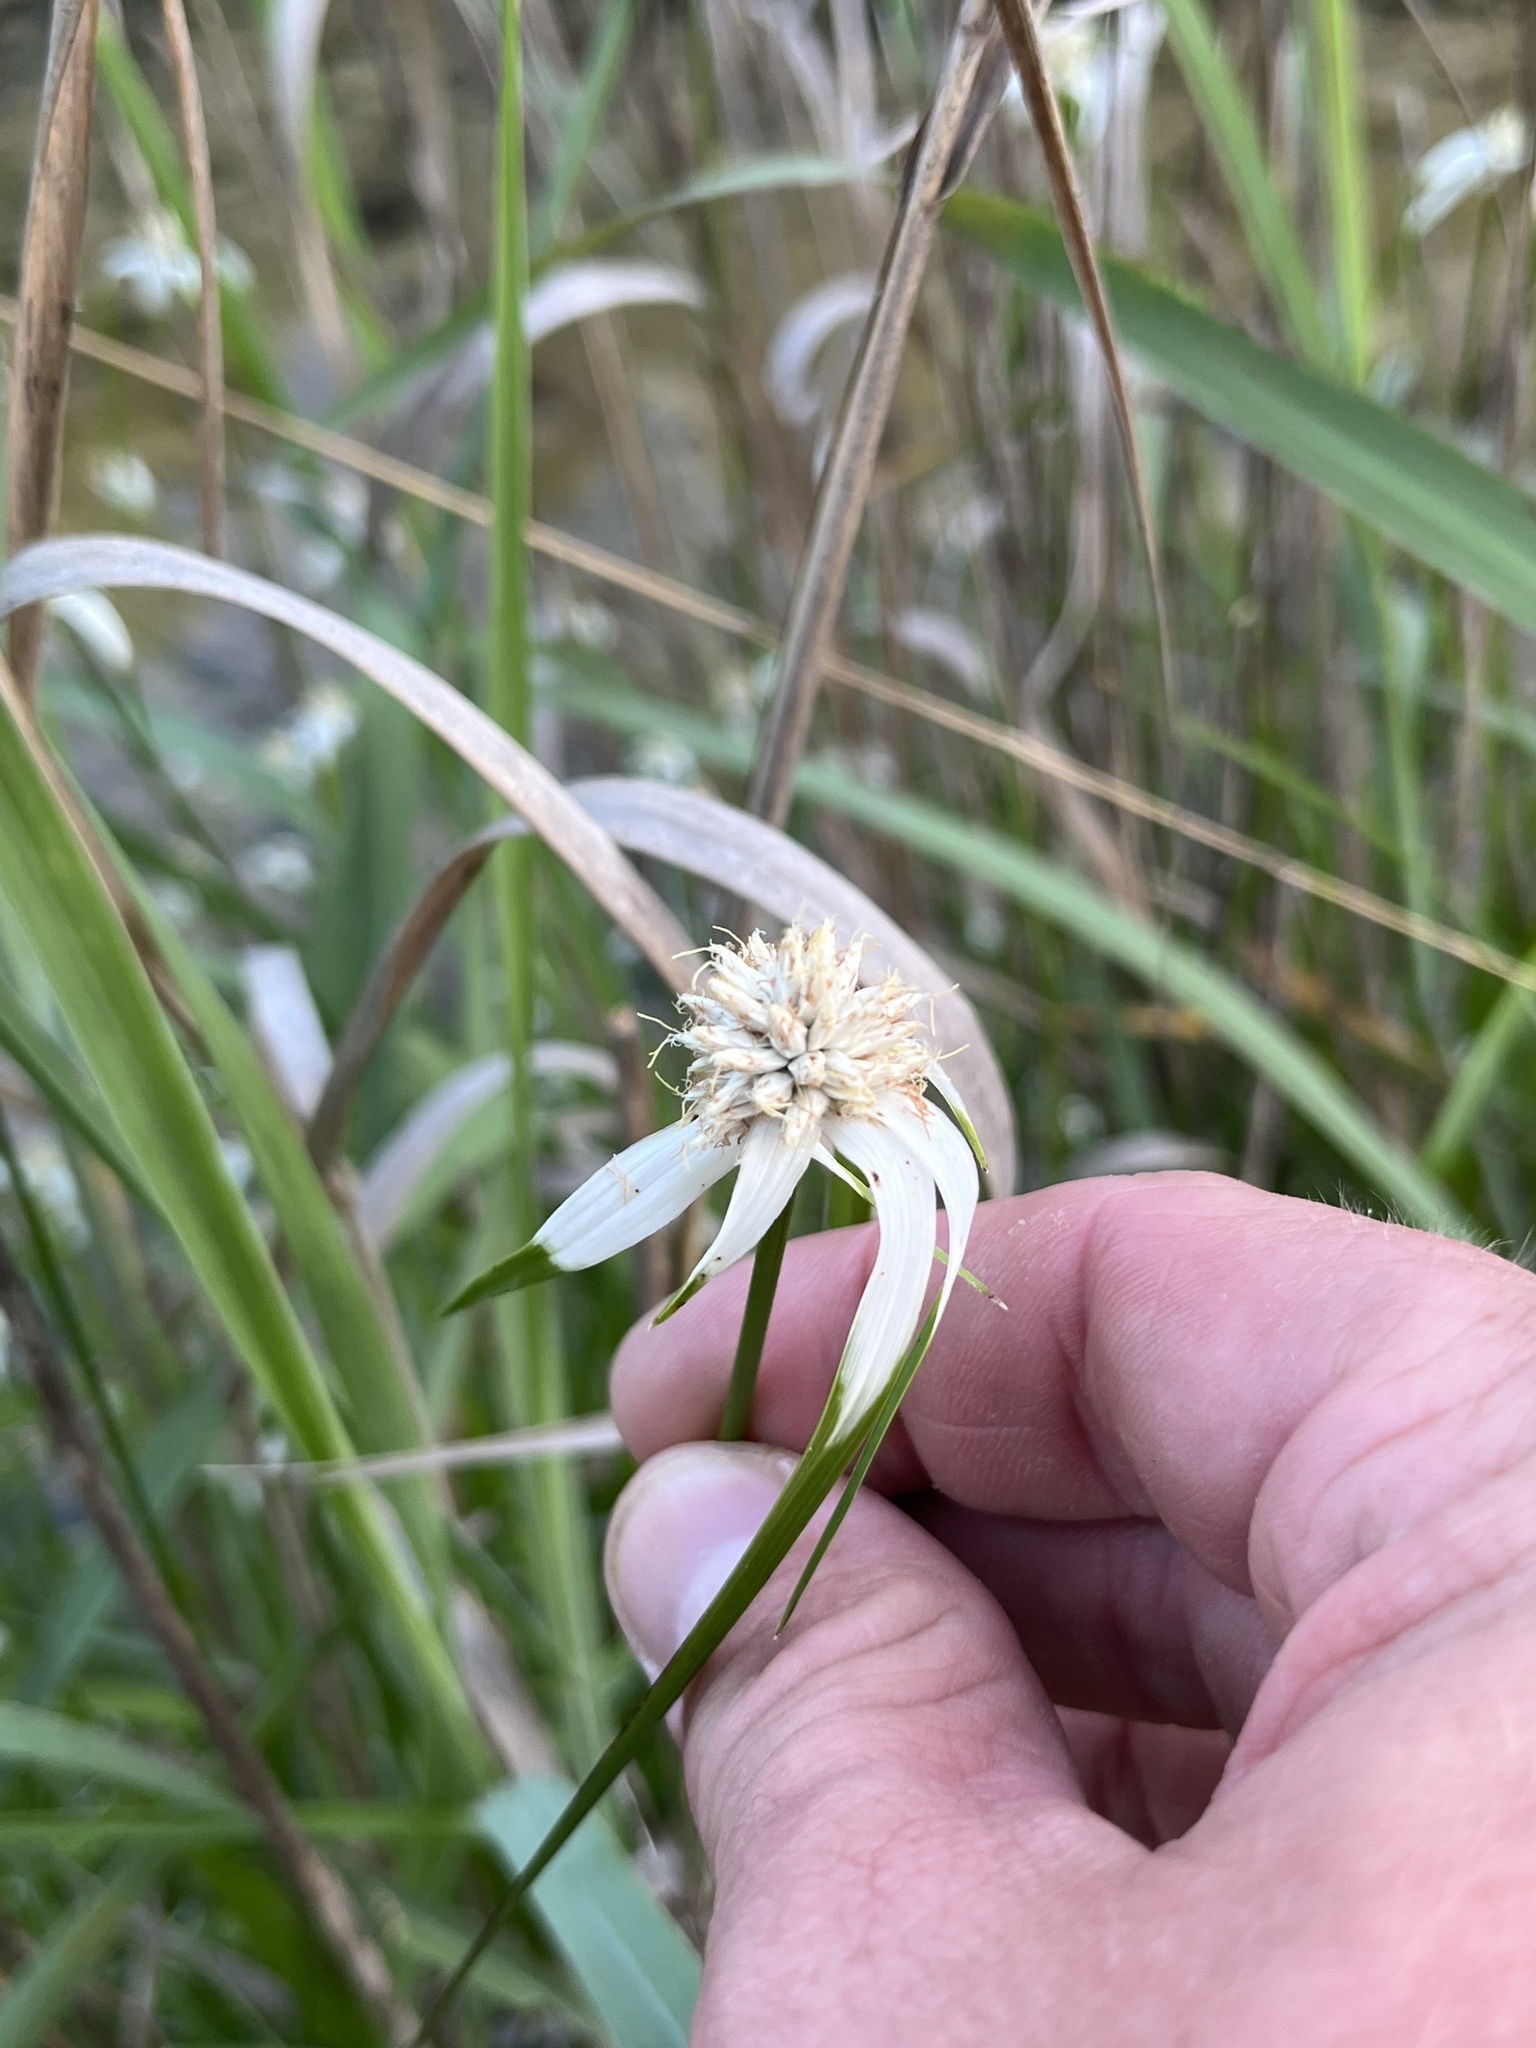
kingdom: Plantae
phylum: Tracheophyta
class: Liliopsida
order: Poales
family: Cyperaceae
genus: Rhynchospora
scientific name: Rhynchospora colorata
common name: Star sedge
